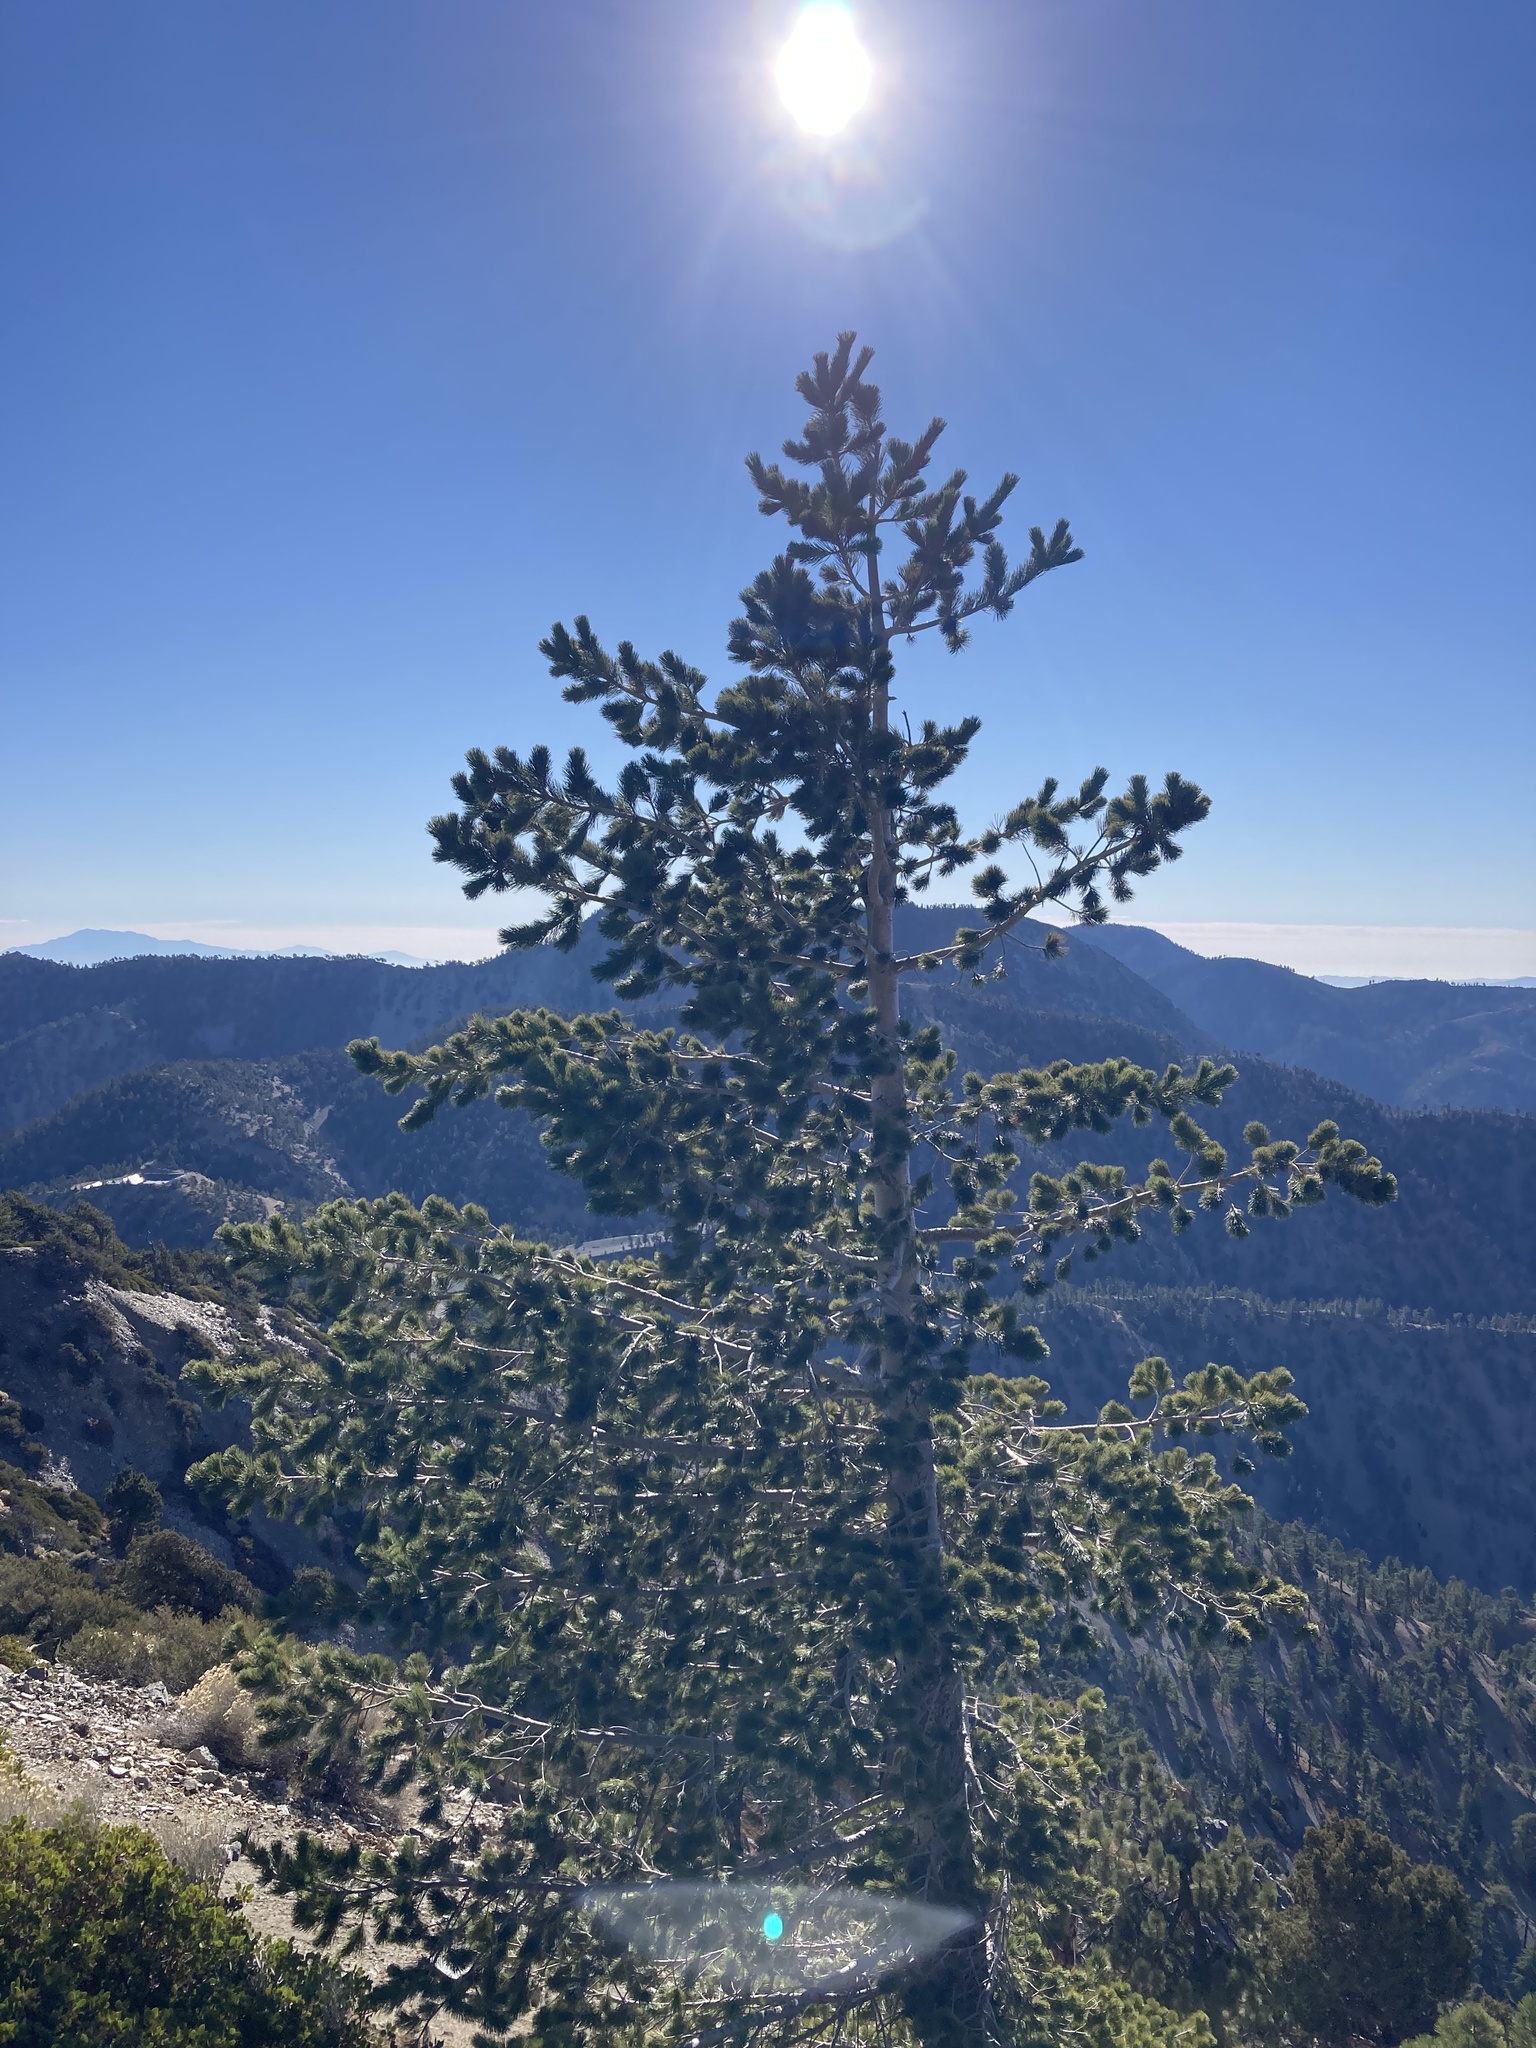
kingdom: Plantae
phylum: Tracheophyta
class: Pinopsida
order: Pinales
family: Pinaceae
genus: Pinus
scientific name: Pinus flexilis
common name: Limber pine
